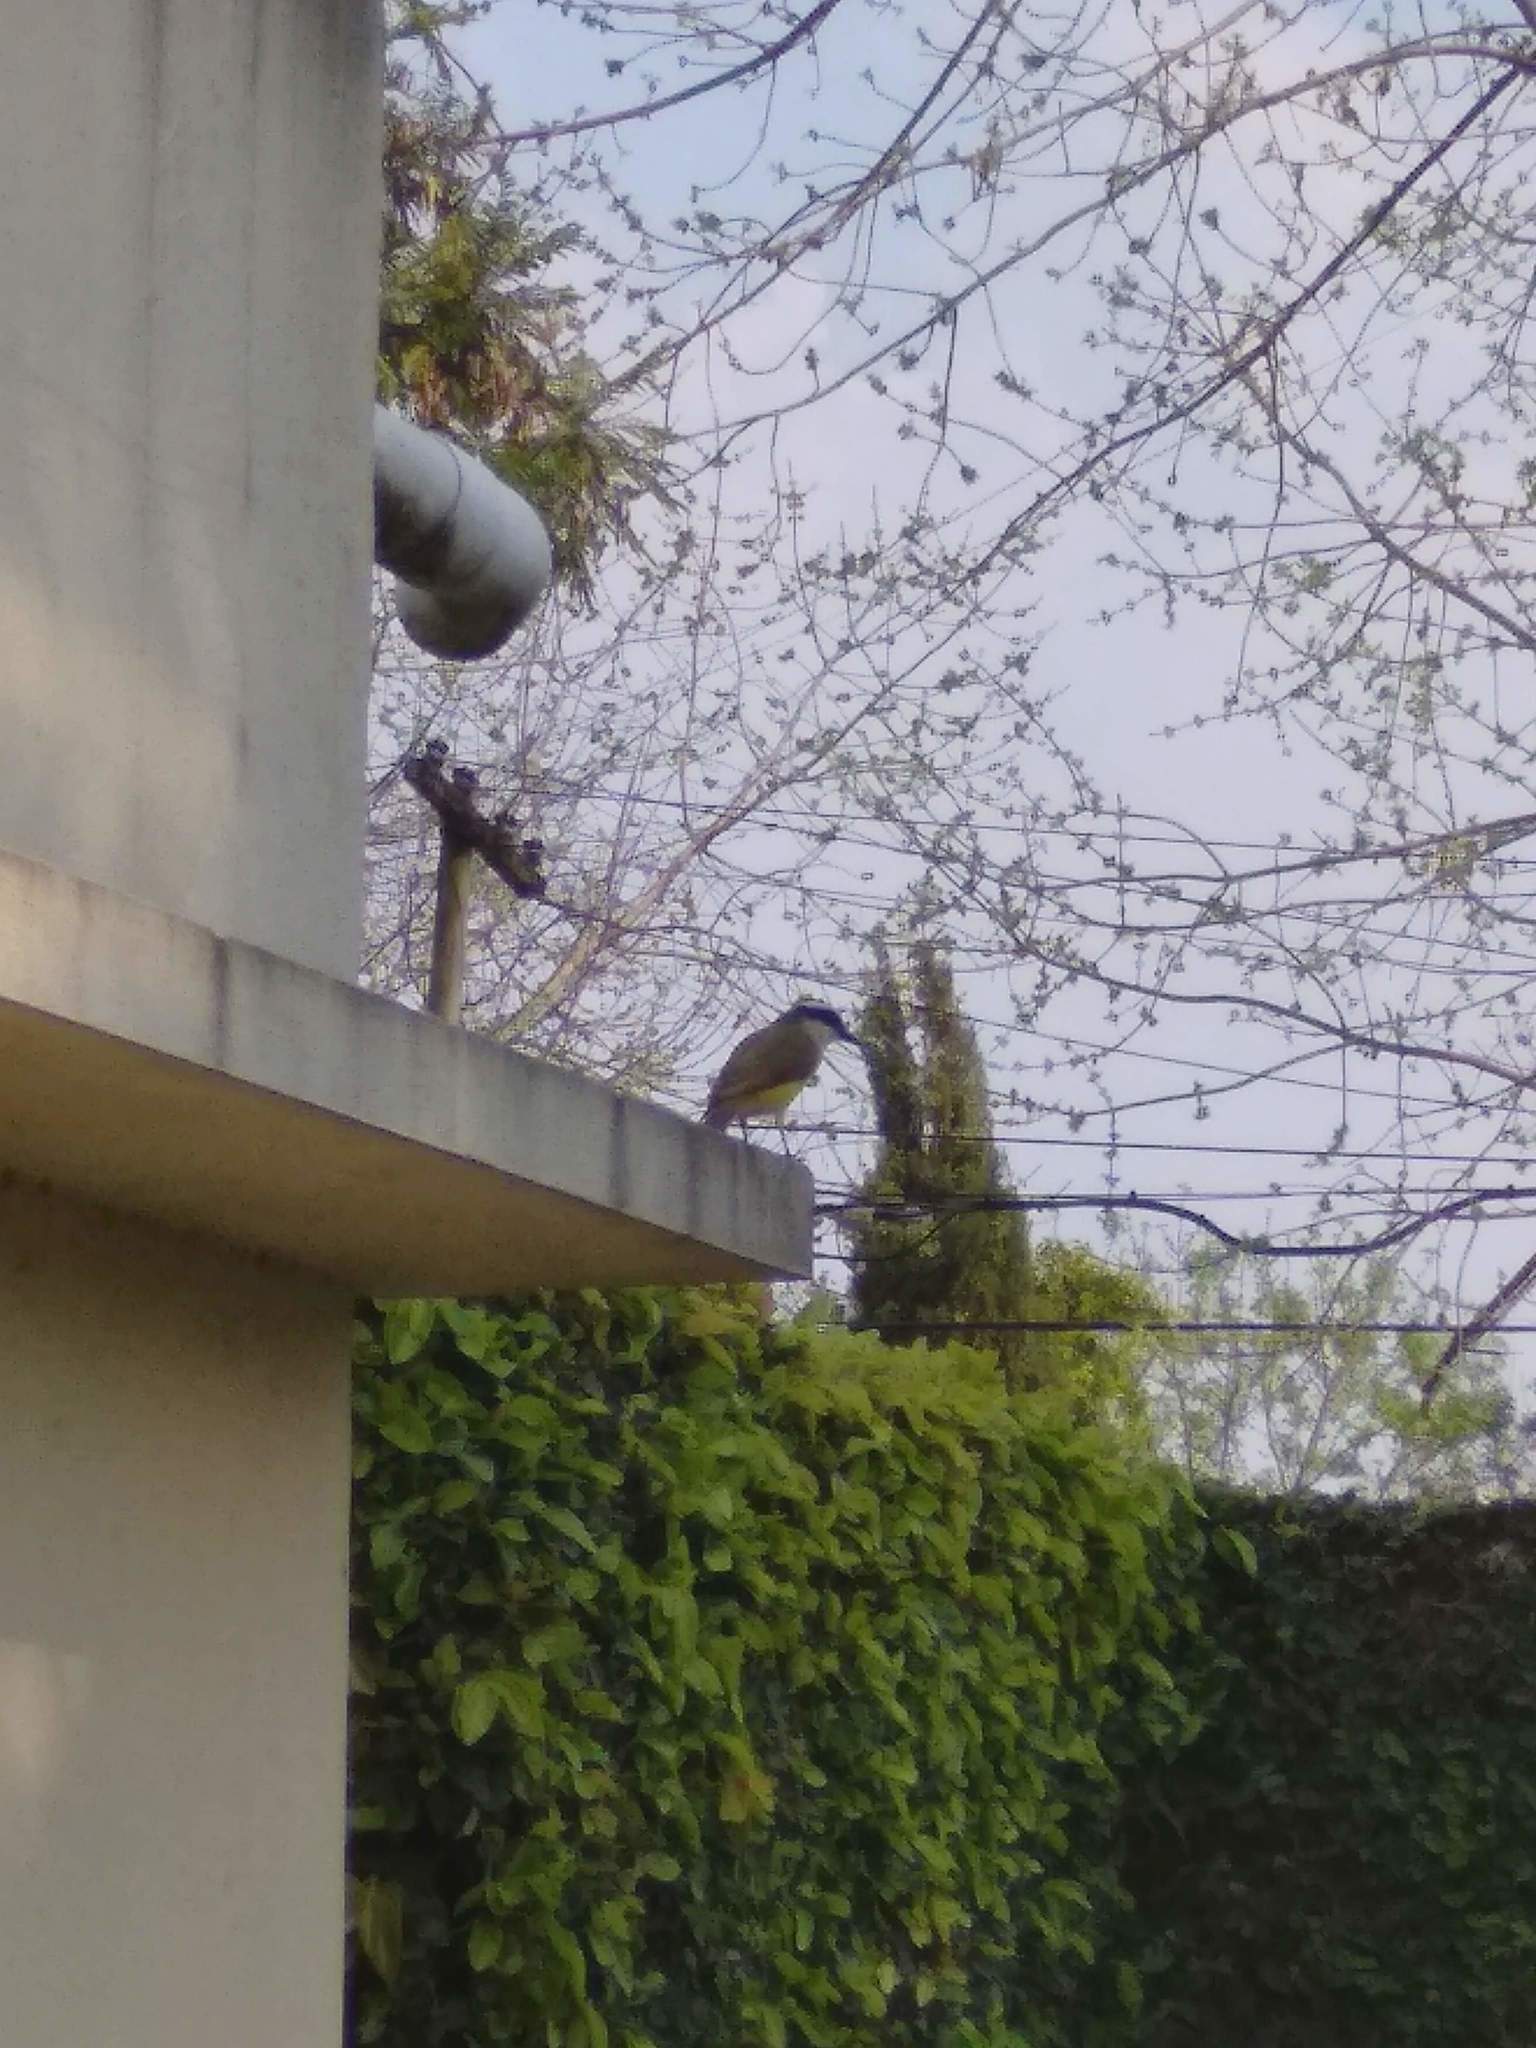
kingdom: Animalia
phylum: Chordata
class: Aves
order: Passeriformes
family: Tyrannidae
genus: Pitangus
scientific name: Pitangus sulphuratus
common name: Great kiskadee
